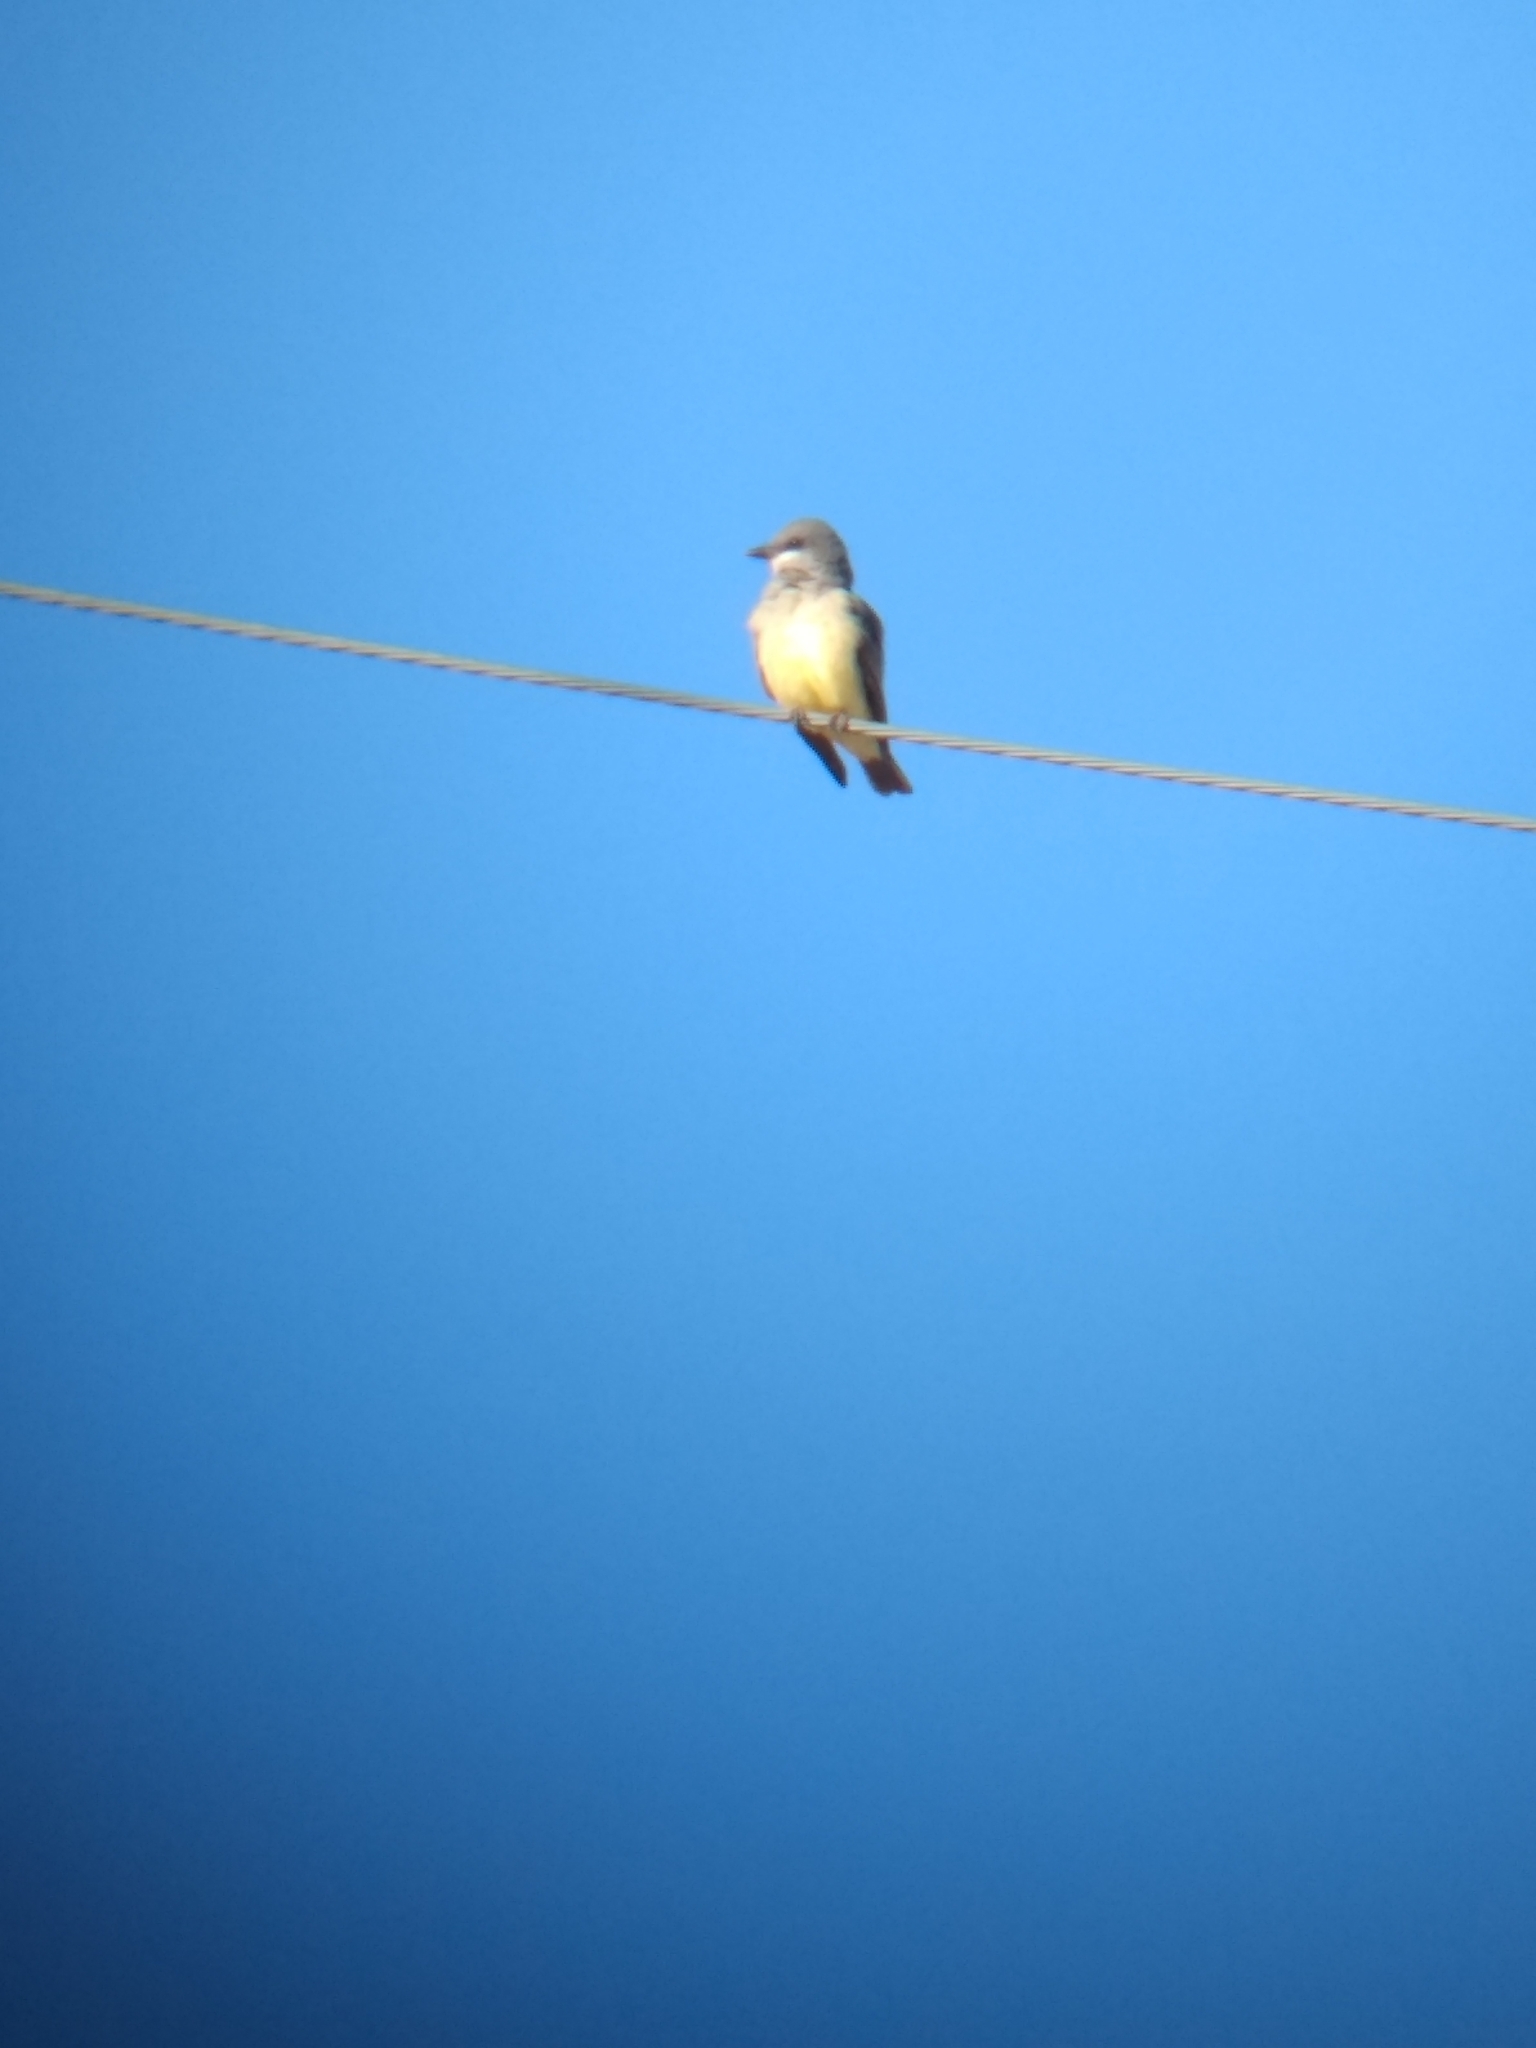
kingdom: Animalia
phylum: Chordata
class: Aves
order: Passeriformes
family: Tyrannidae
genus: Tyrannus
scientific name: Tyrannus vociferans
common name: Cassin's kingbird
